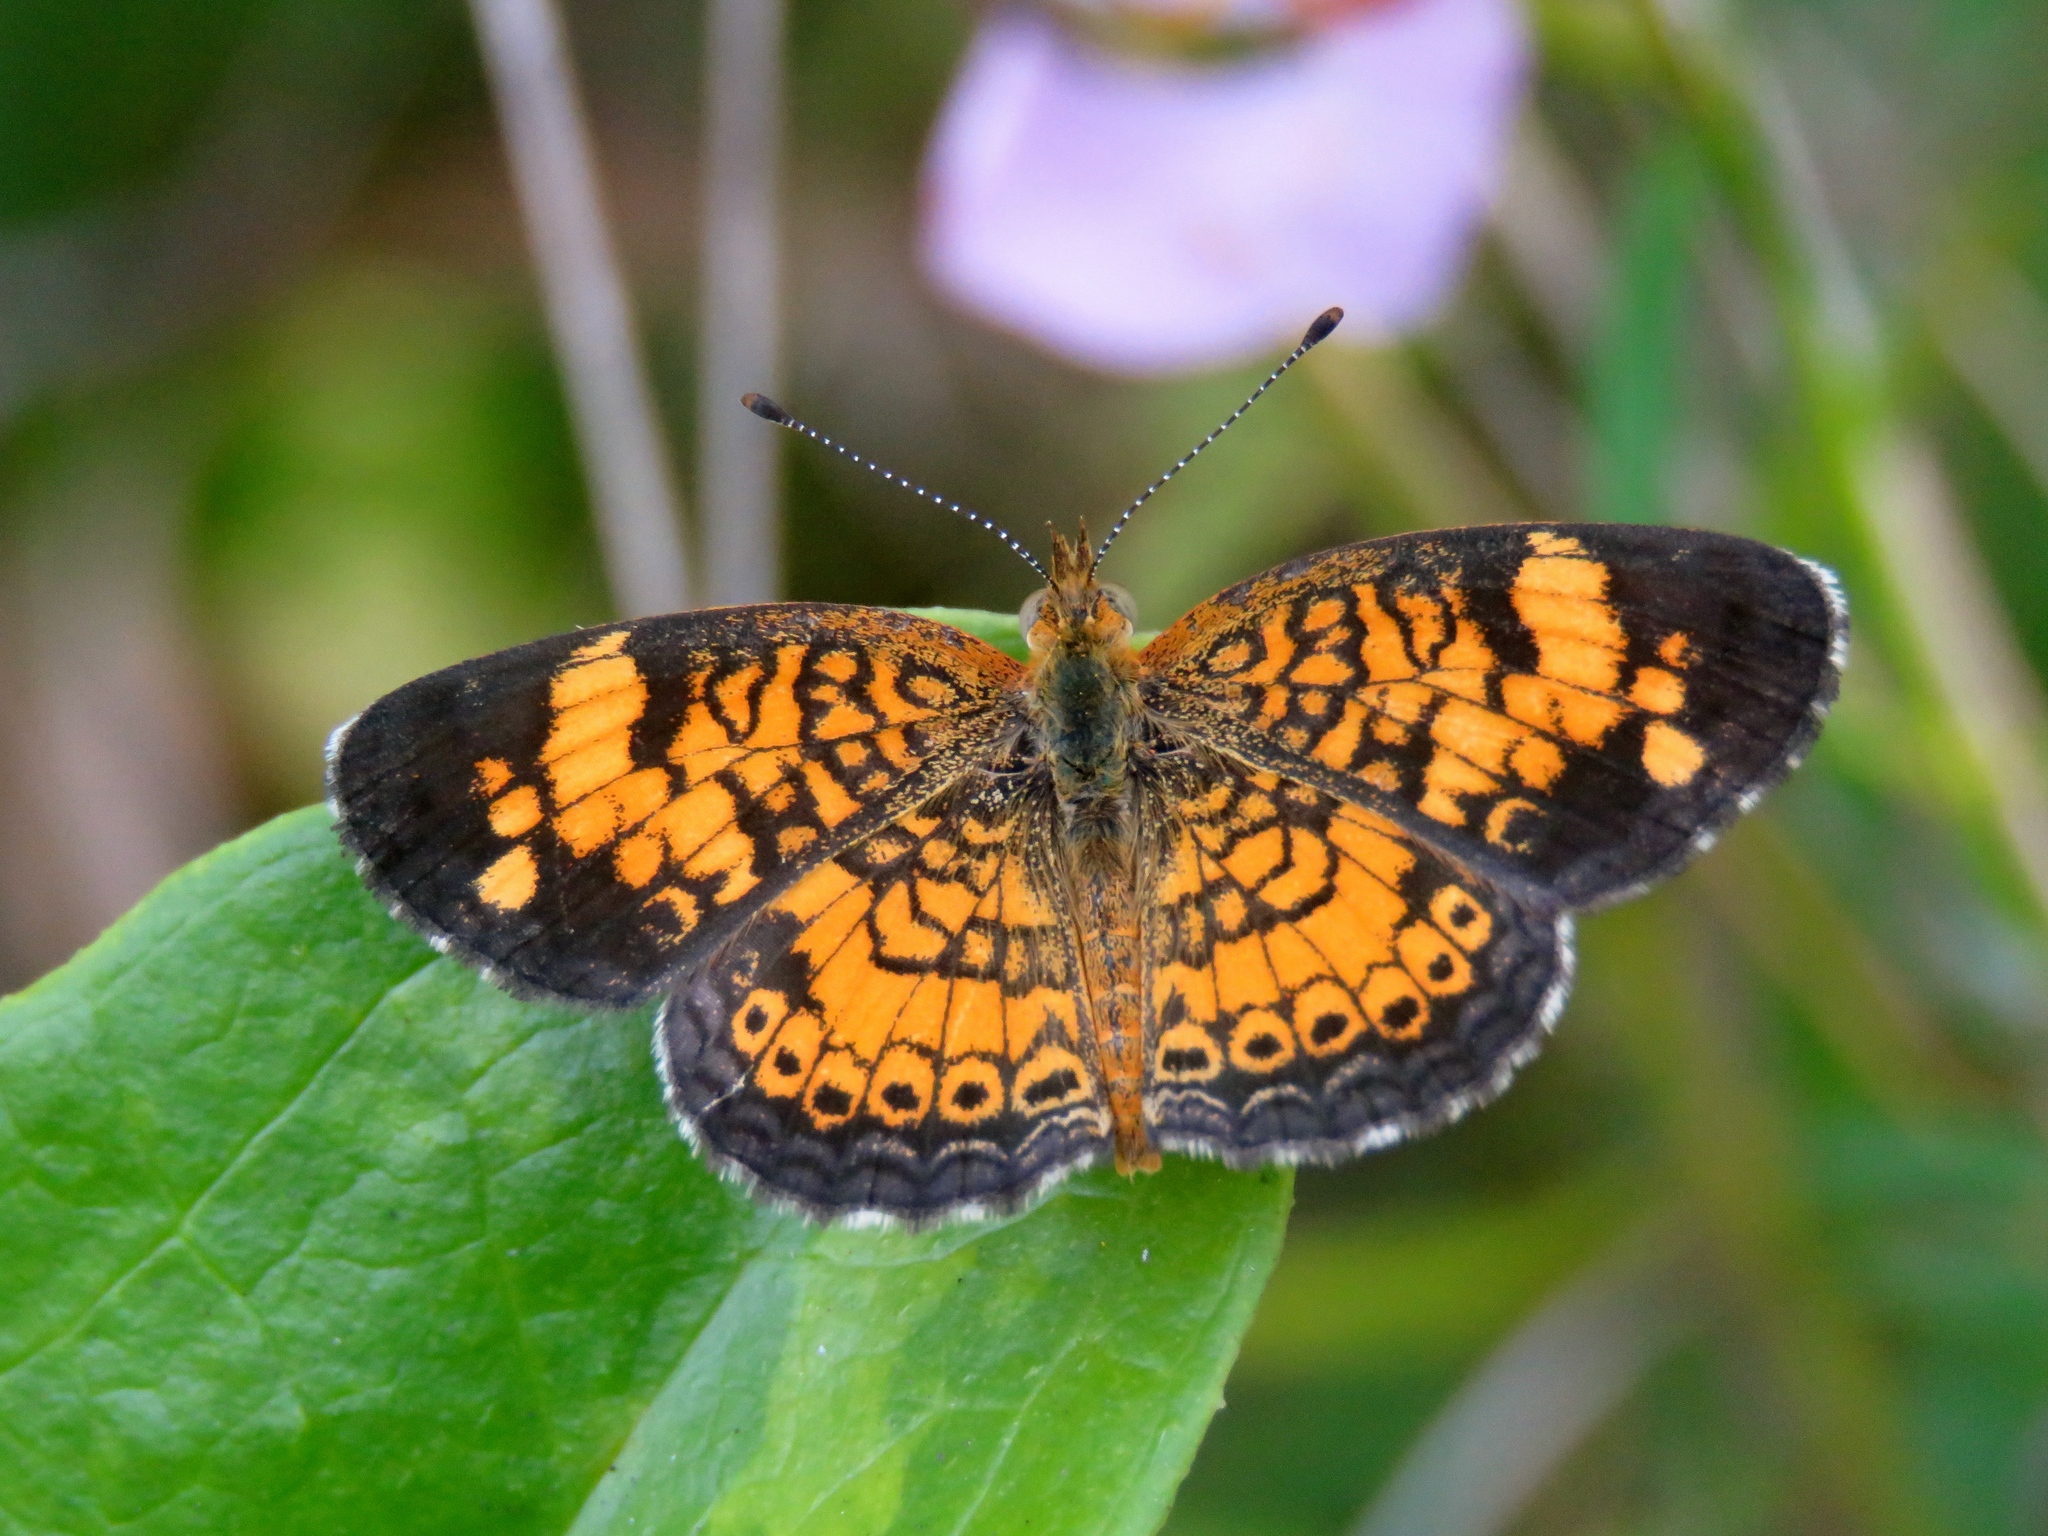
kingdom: Animalia
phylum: Arthropoda
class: Insecta
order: Lepidoptera
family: Nymphalidae
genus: Phyciodes
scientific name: Phyciodes tharos
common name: Pearl crescent
